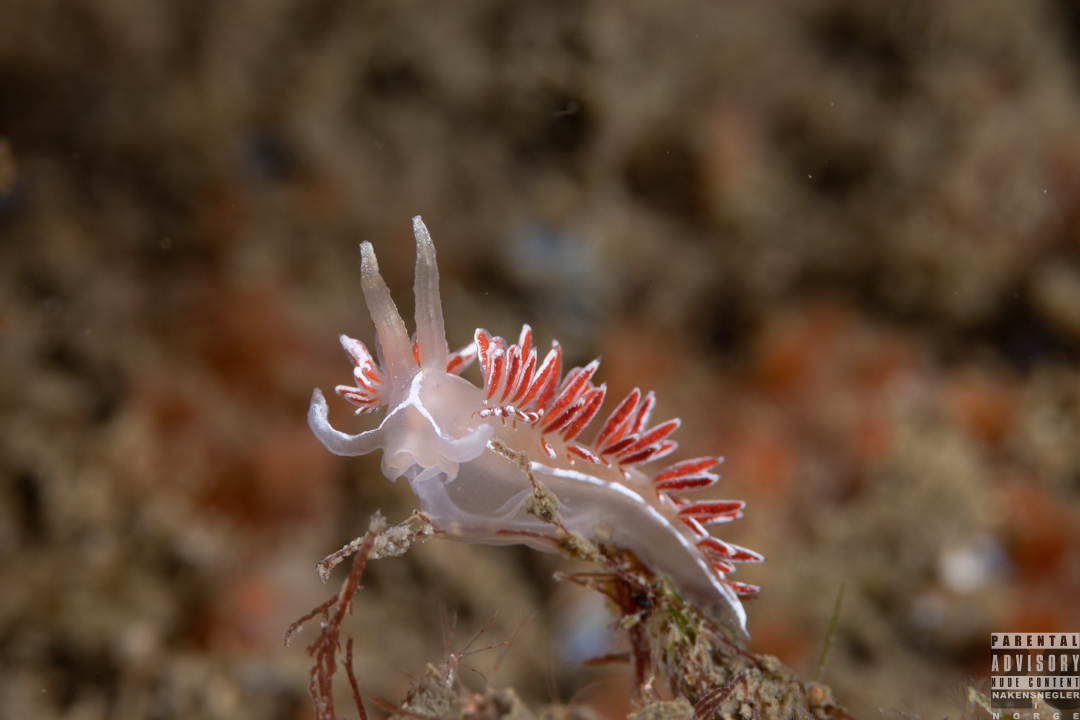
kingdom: Animalia
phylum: Mollusca
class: Gastropoda
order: Nudibranchia
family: Coryphellidae
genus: Coryphella
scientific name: Coryphella lineata
